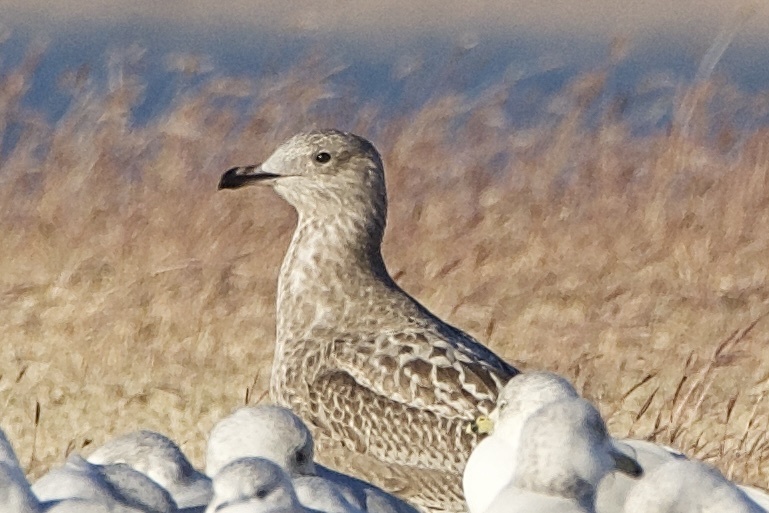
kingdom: Animalia
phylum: Chordata
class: Aves
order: Charadriiformes
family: Laridae
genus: Larus
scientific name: Larus argentatus
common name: Herring gull
